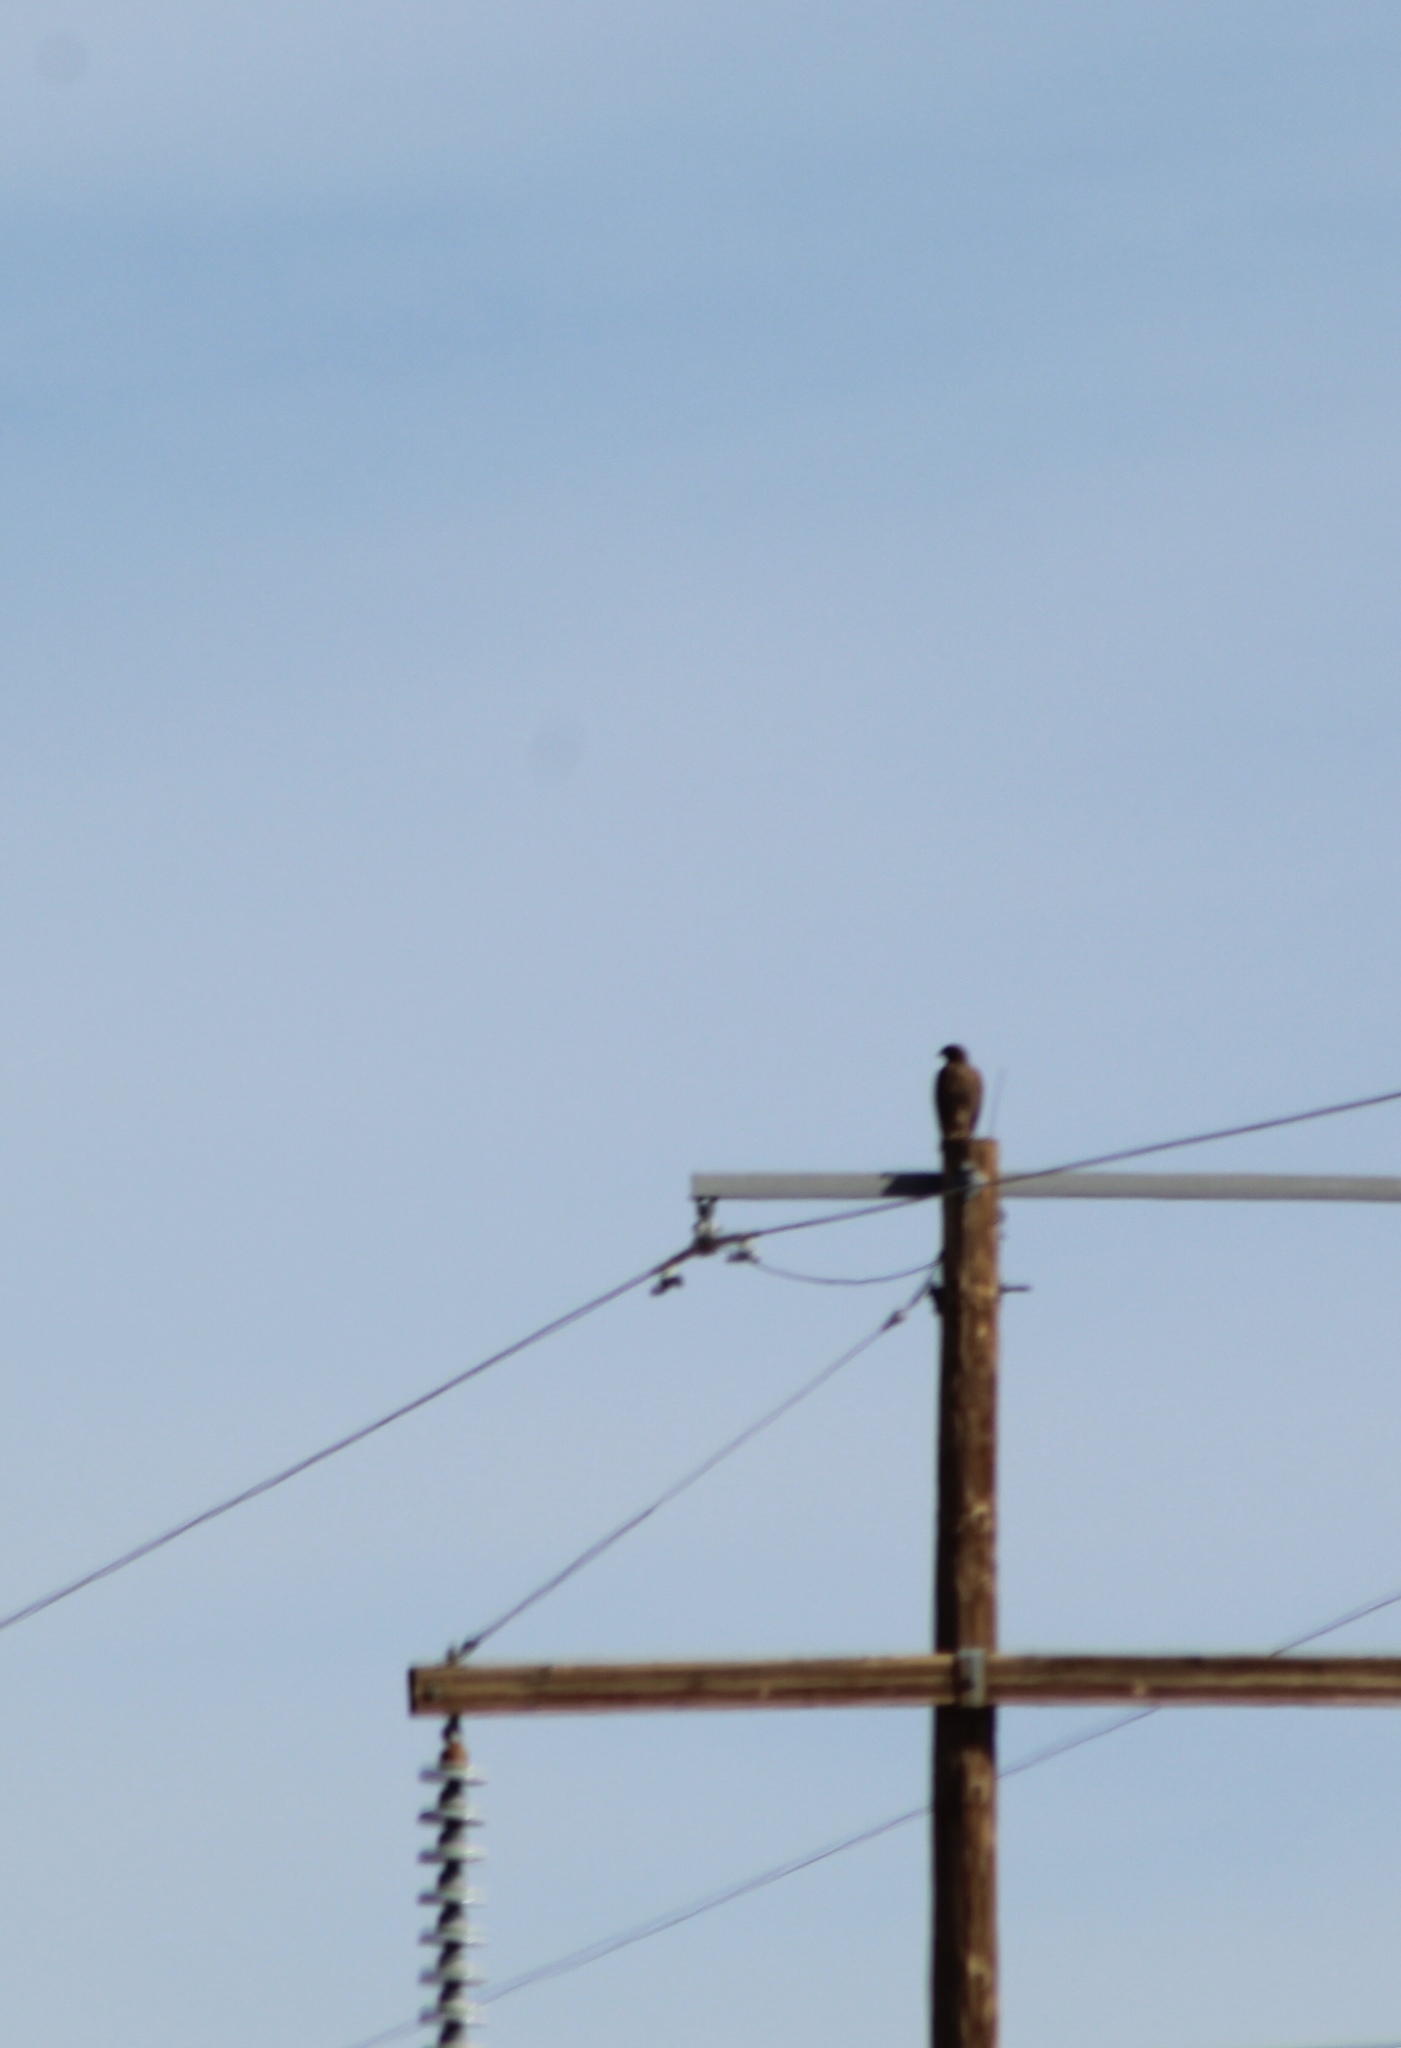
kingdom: Animalia
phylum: Chordata
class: Aves
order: Accipitriformes
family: Accipitridae
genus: Buteo
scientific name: Buteo jamaicensis
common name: Red-tailed hawk
